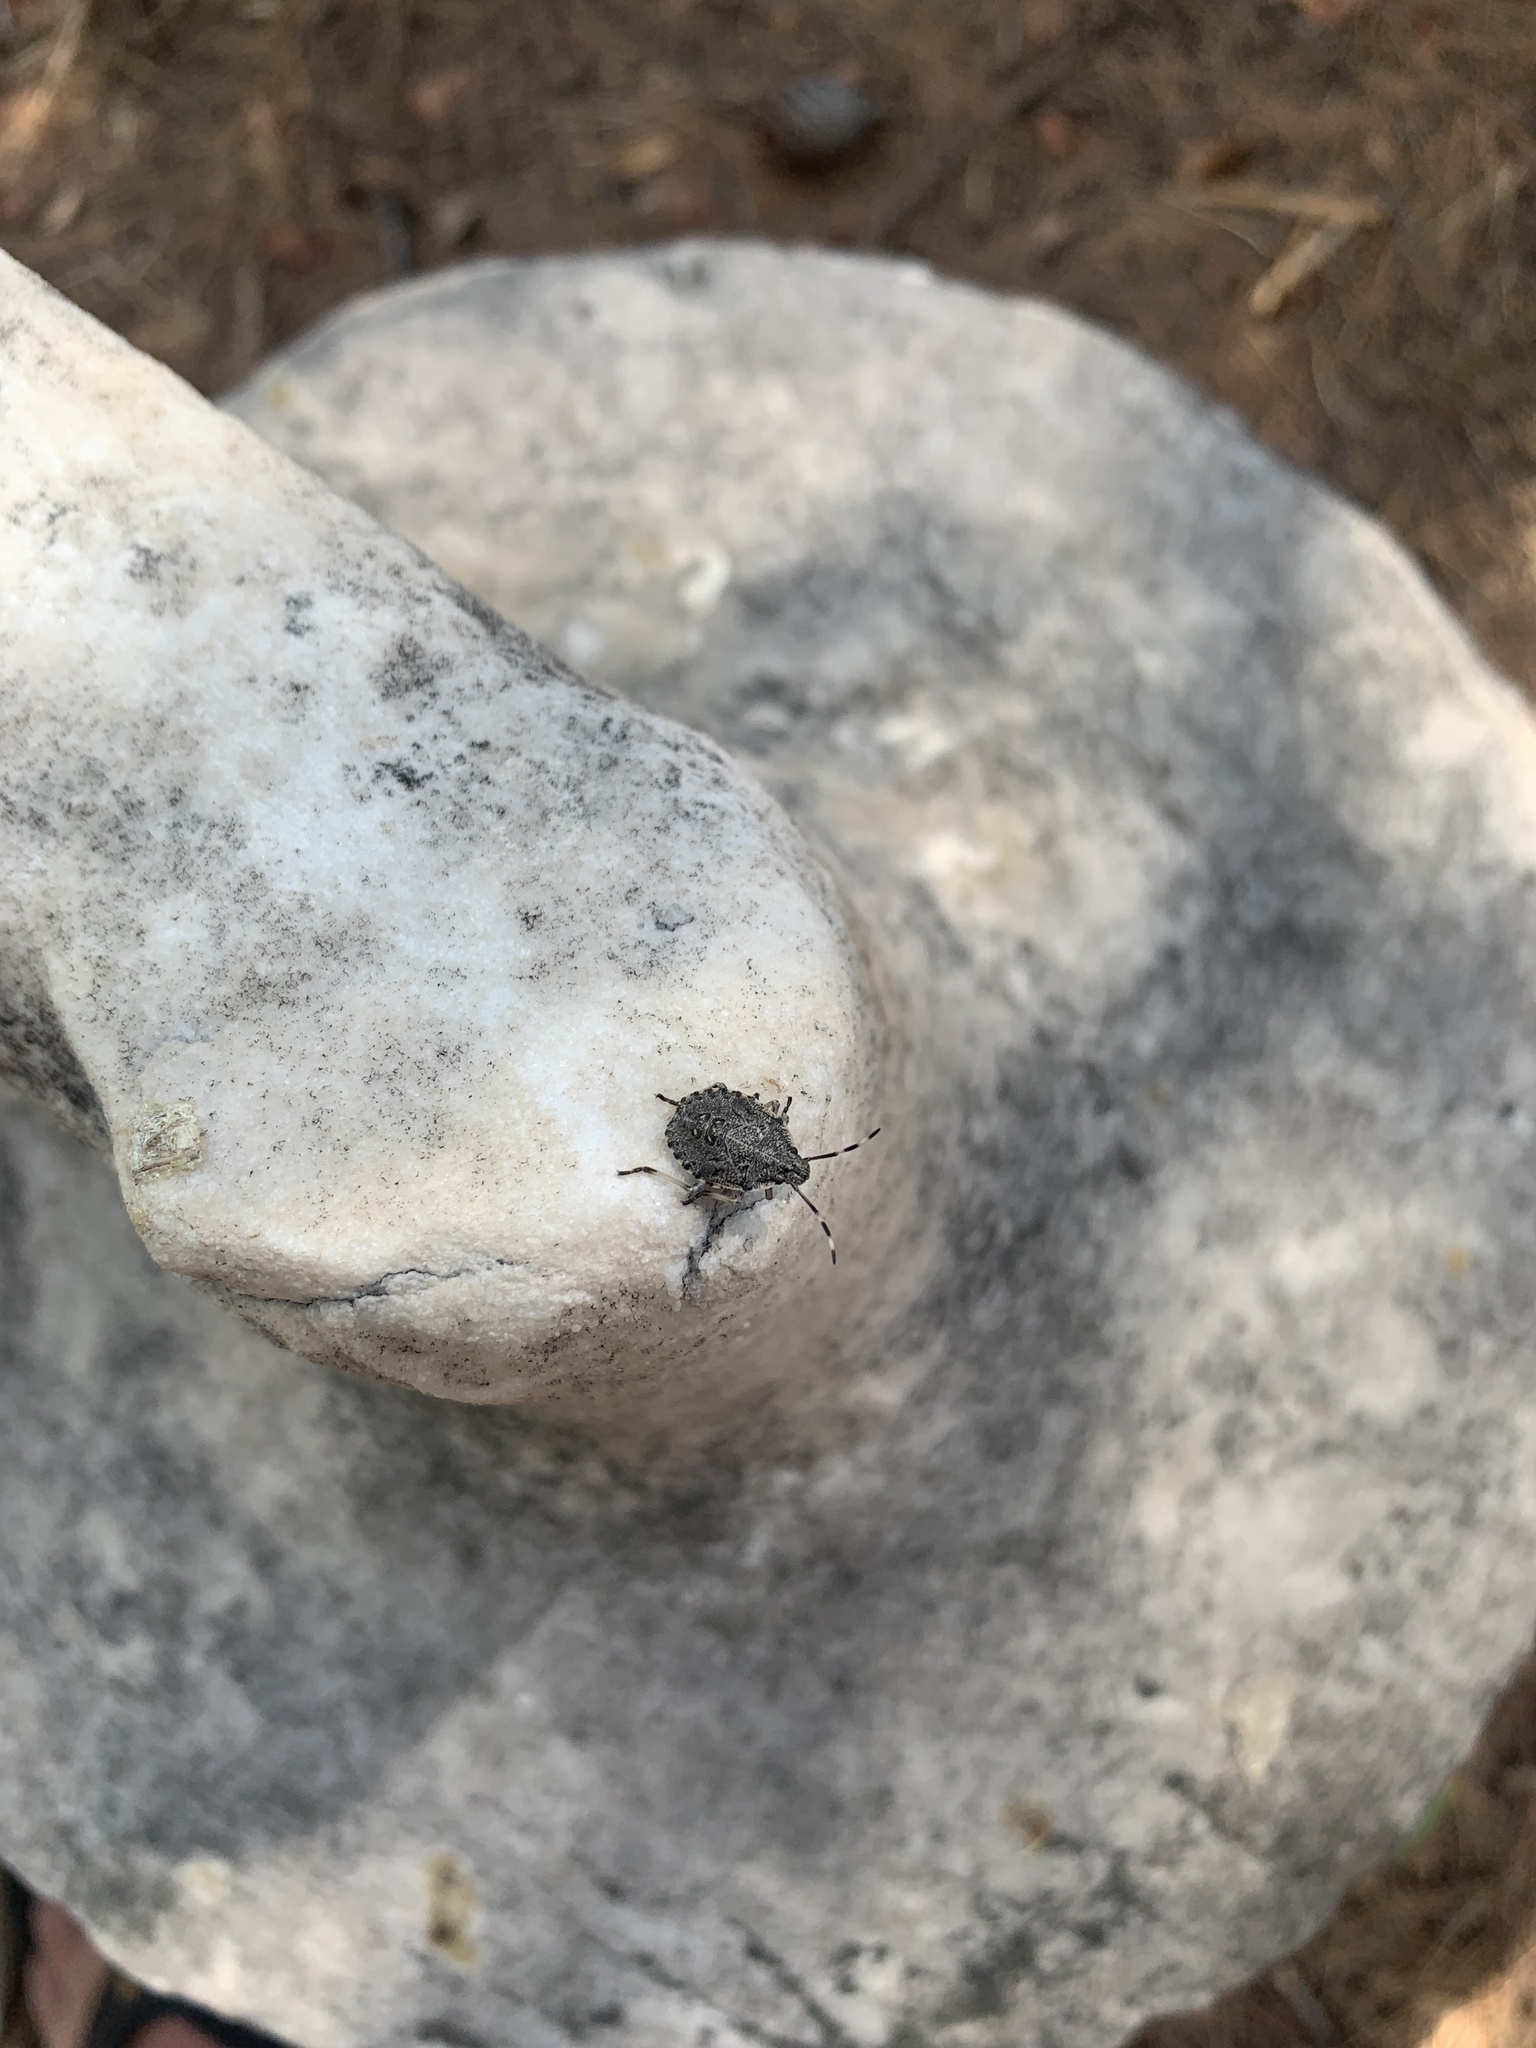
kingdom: Animalia
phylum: Arthropoda
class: Insecta
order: Hemiptera
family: Pentatomidae
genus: Rhaphigaster
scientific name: Rhaphigaster nebulosa
